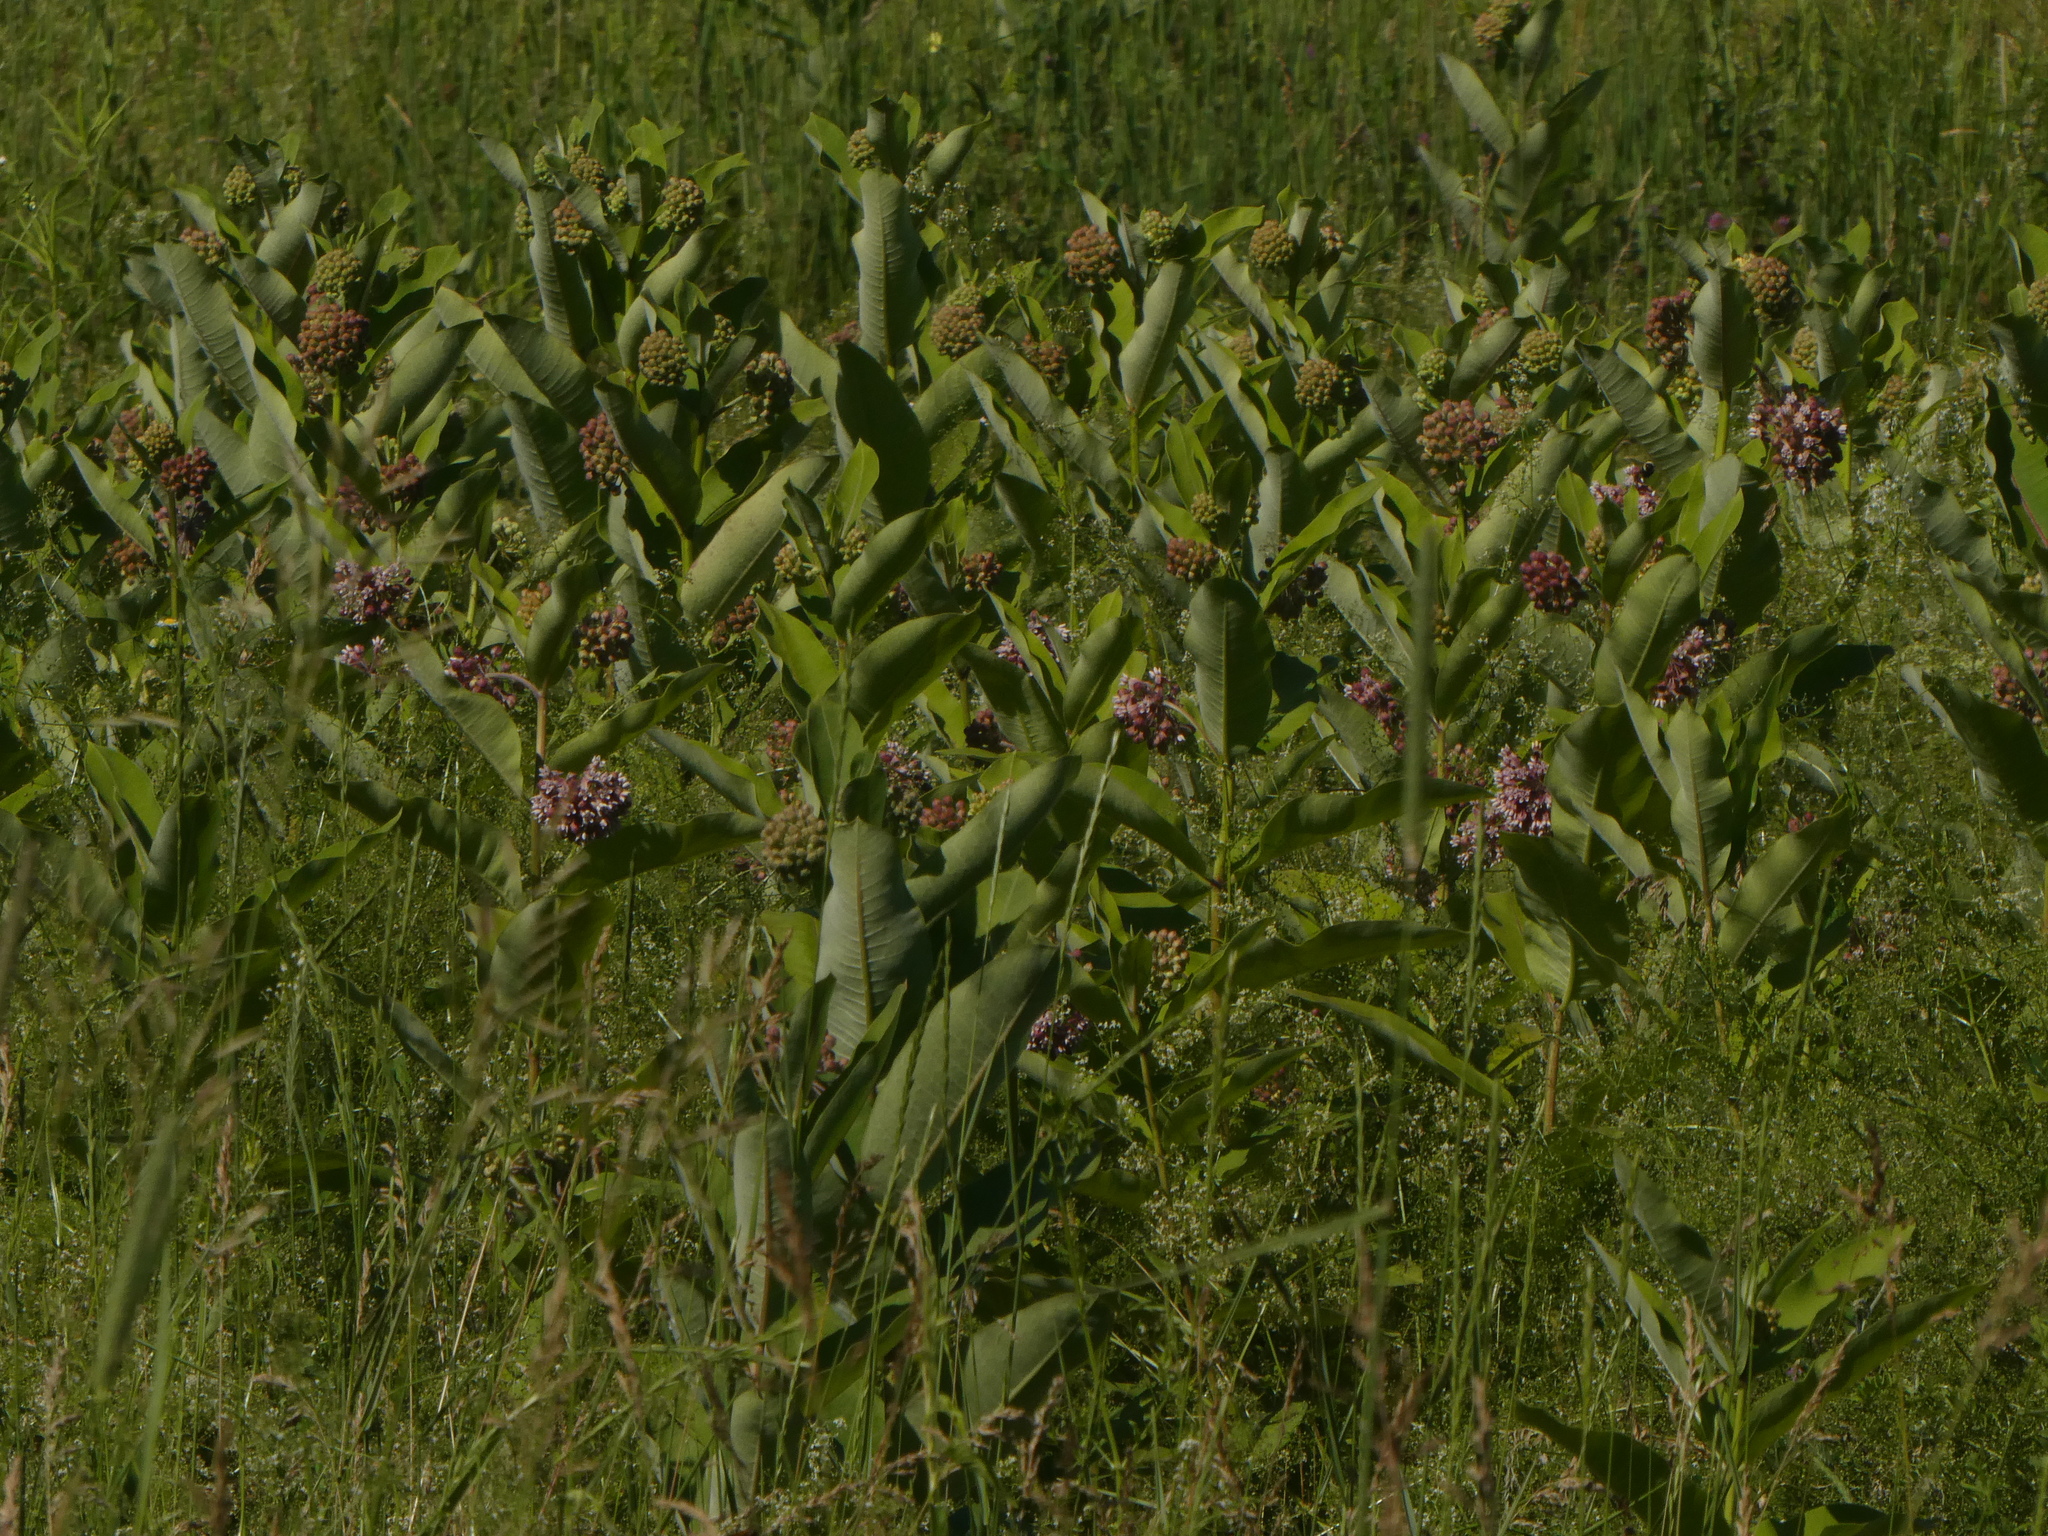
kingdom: Plantae
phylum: Tracheophyta
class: Magnoliopsida
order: Gentianales
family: Apocynaceae
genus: Asclepias
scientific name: Asclepias syriaca
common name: Common milkweed
